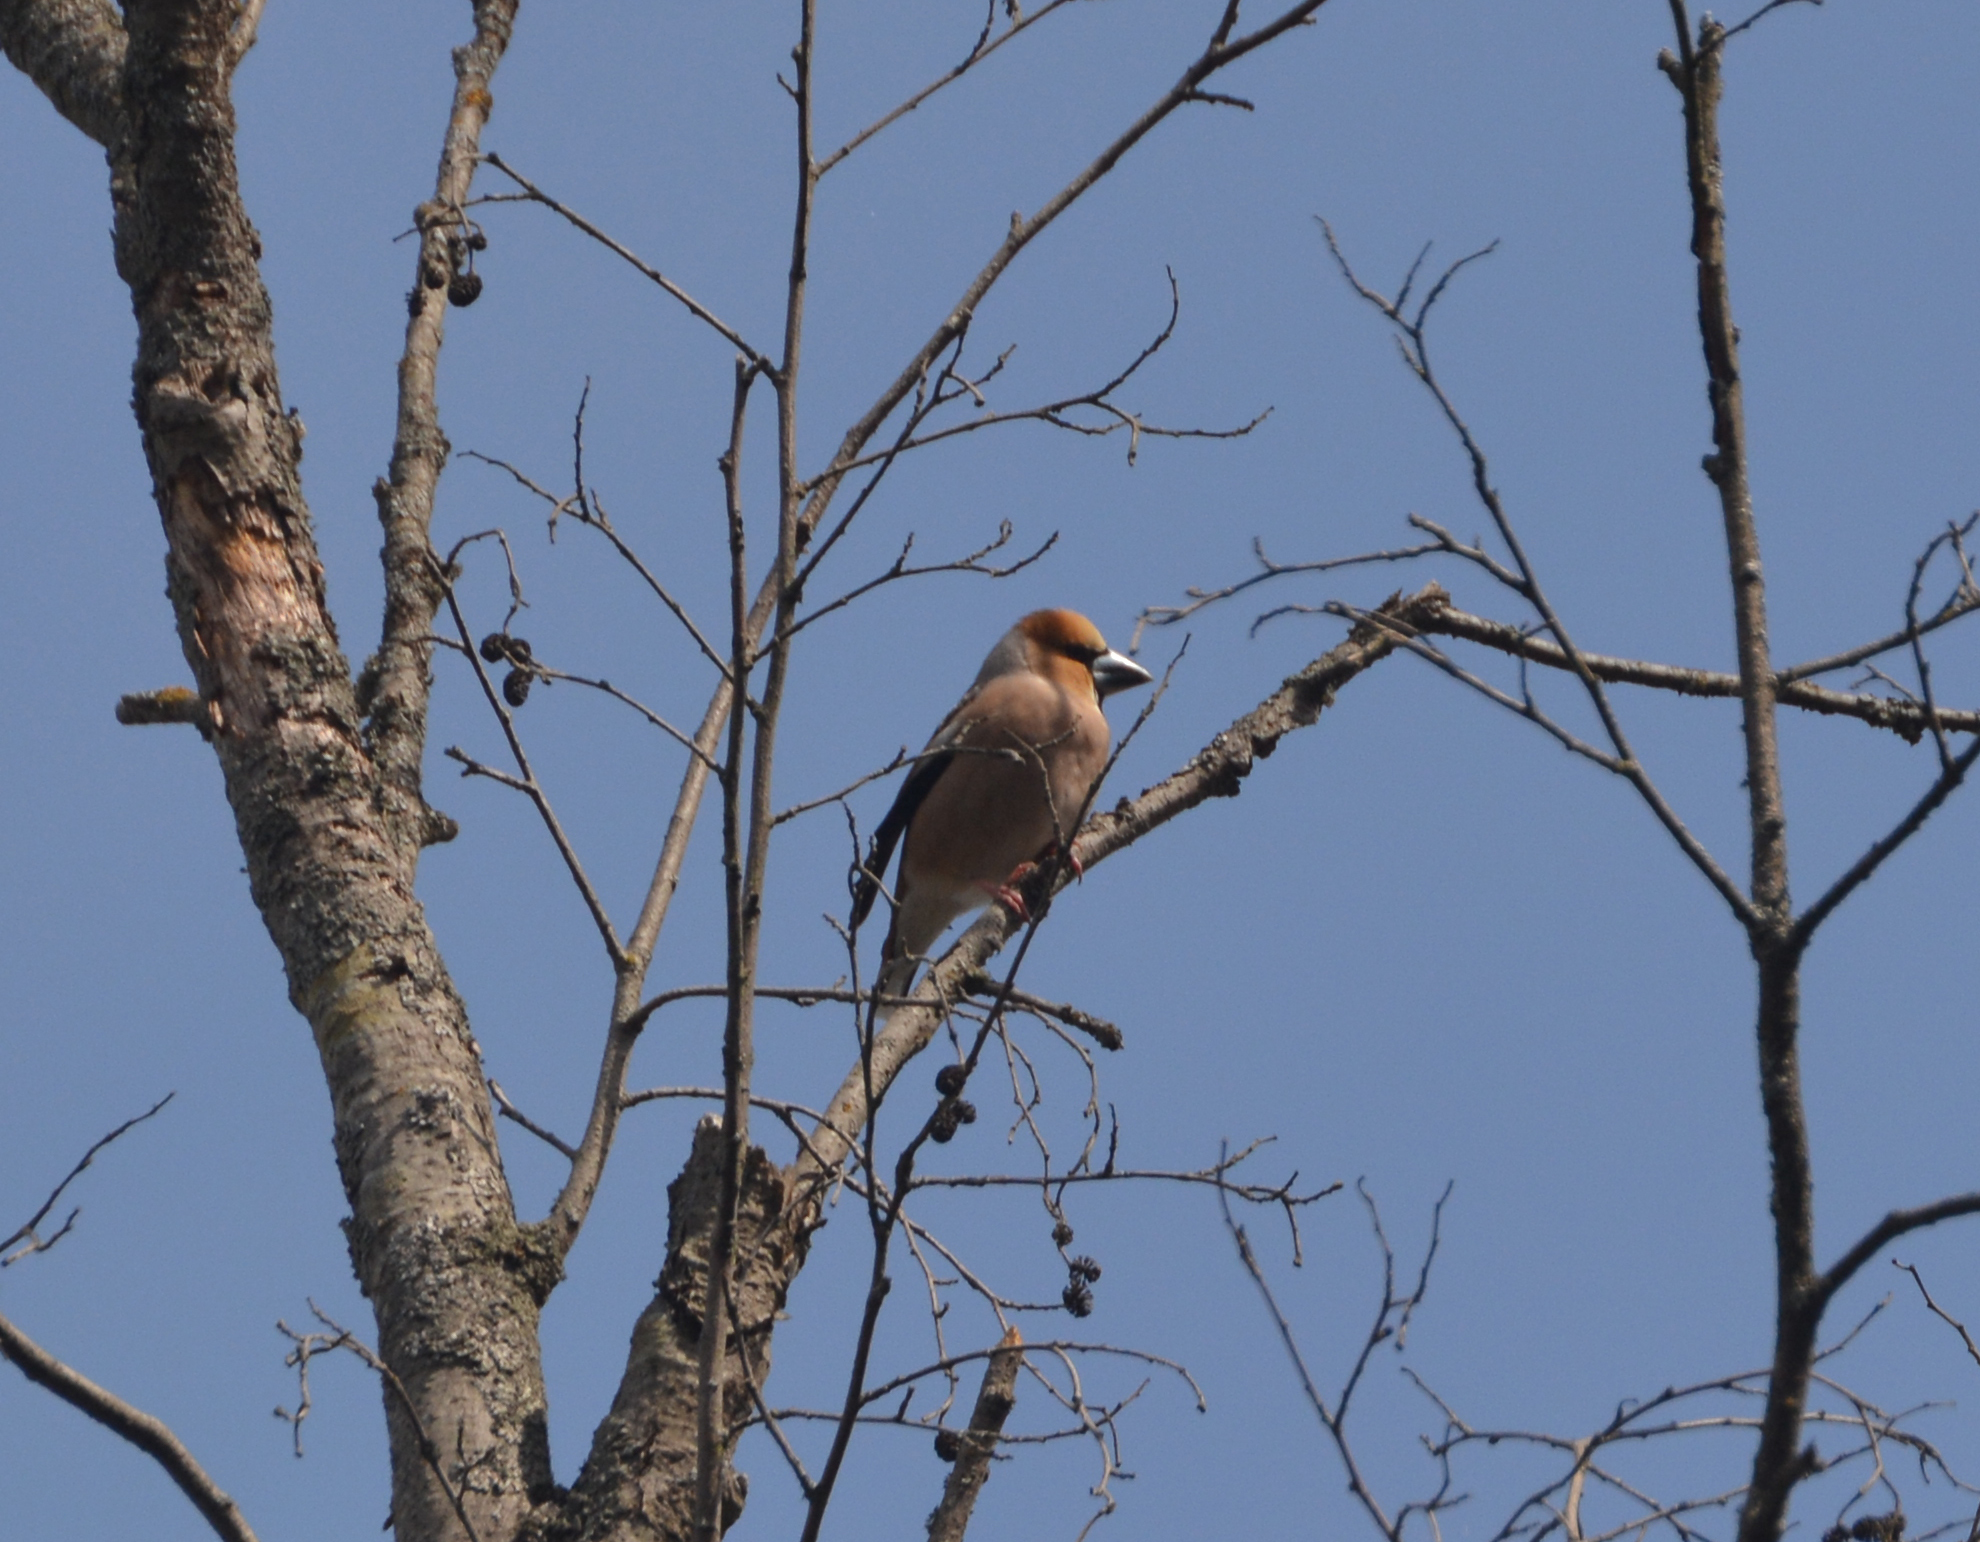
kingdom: Animalia
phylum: Chordata
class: Aves
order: Passeriformes
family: Fringillidae
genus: Coccothraustes
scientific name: Coccothraustes coccothraustes
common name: Hawfinch
